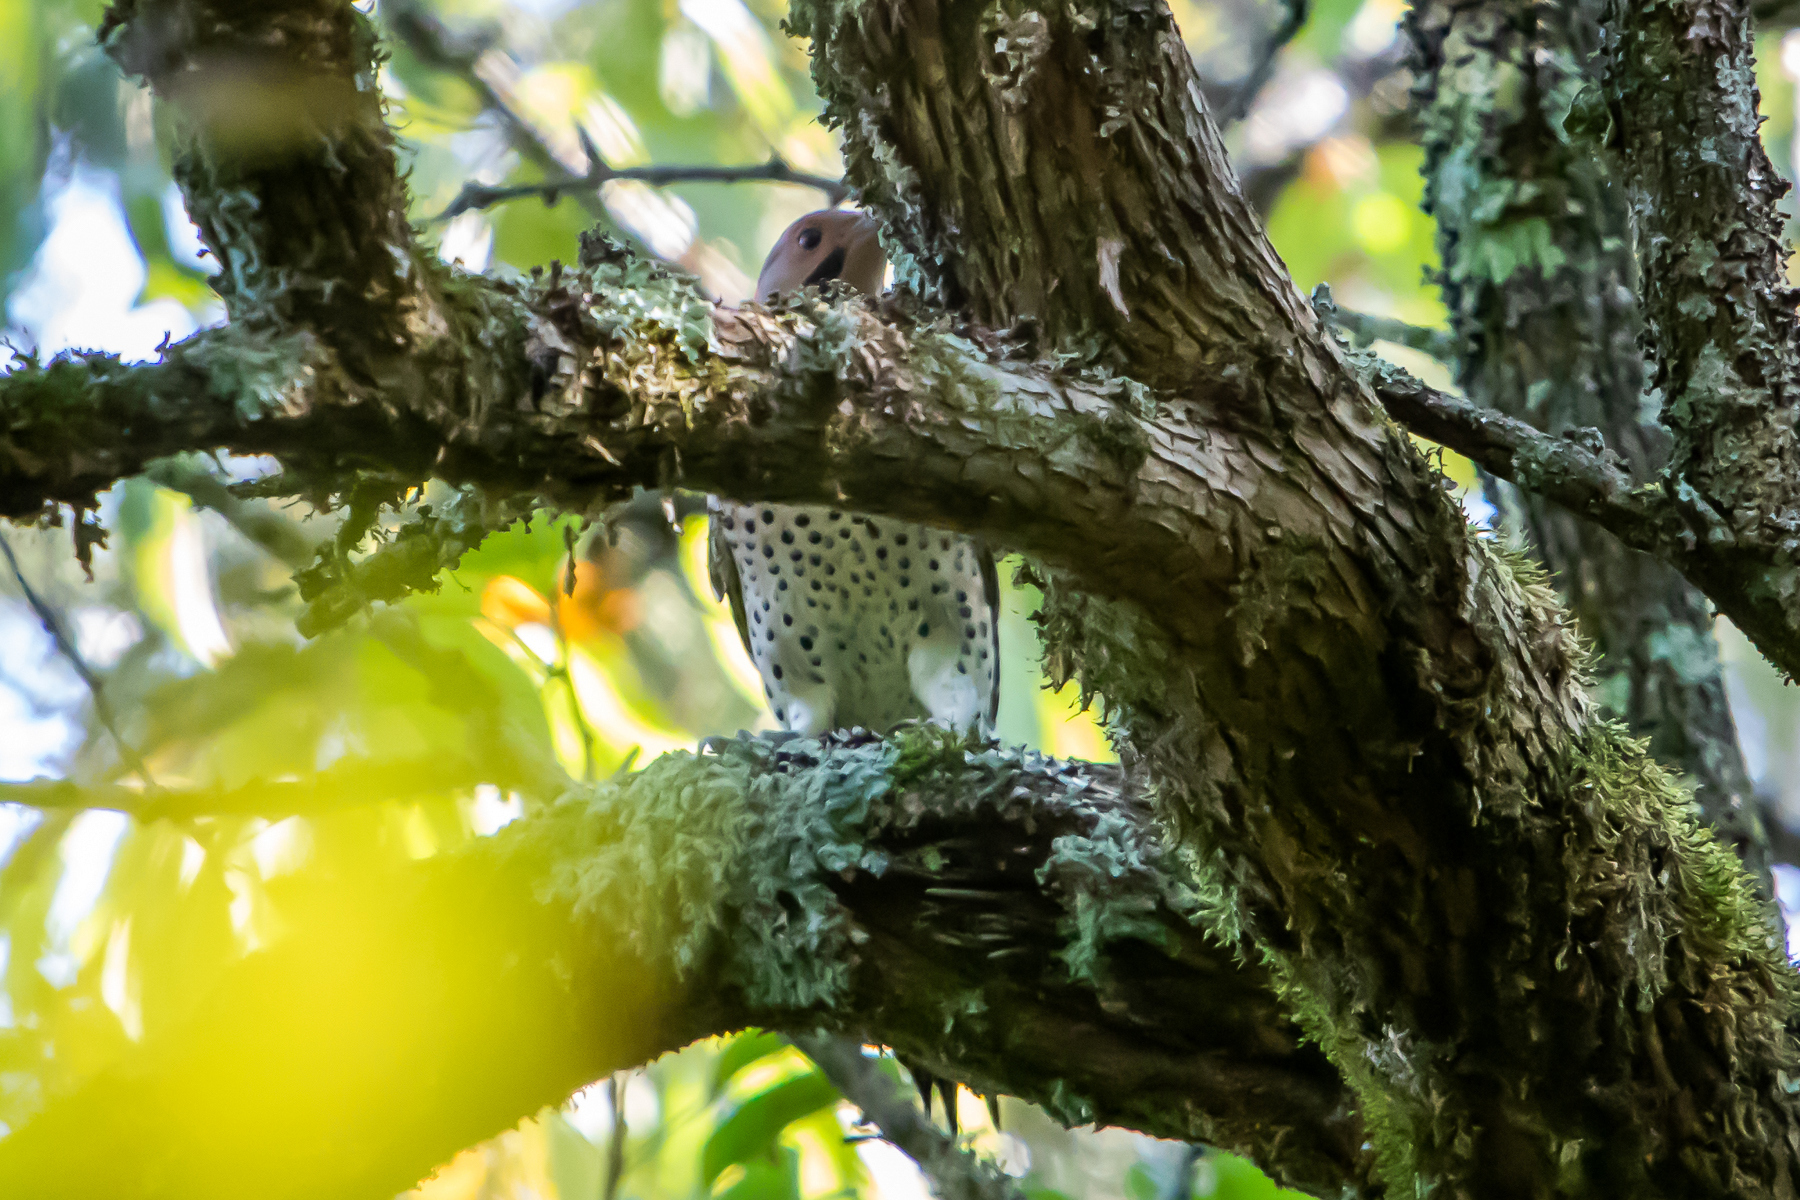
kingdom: Animalia
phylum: Chordata
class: Aves
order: Piciformes
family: Picidae
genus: Colaptes
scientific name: Colaptes auratus
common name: Northern flicker
